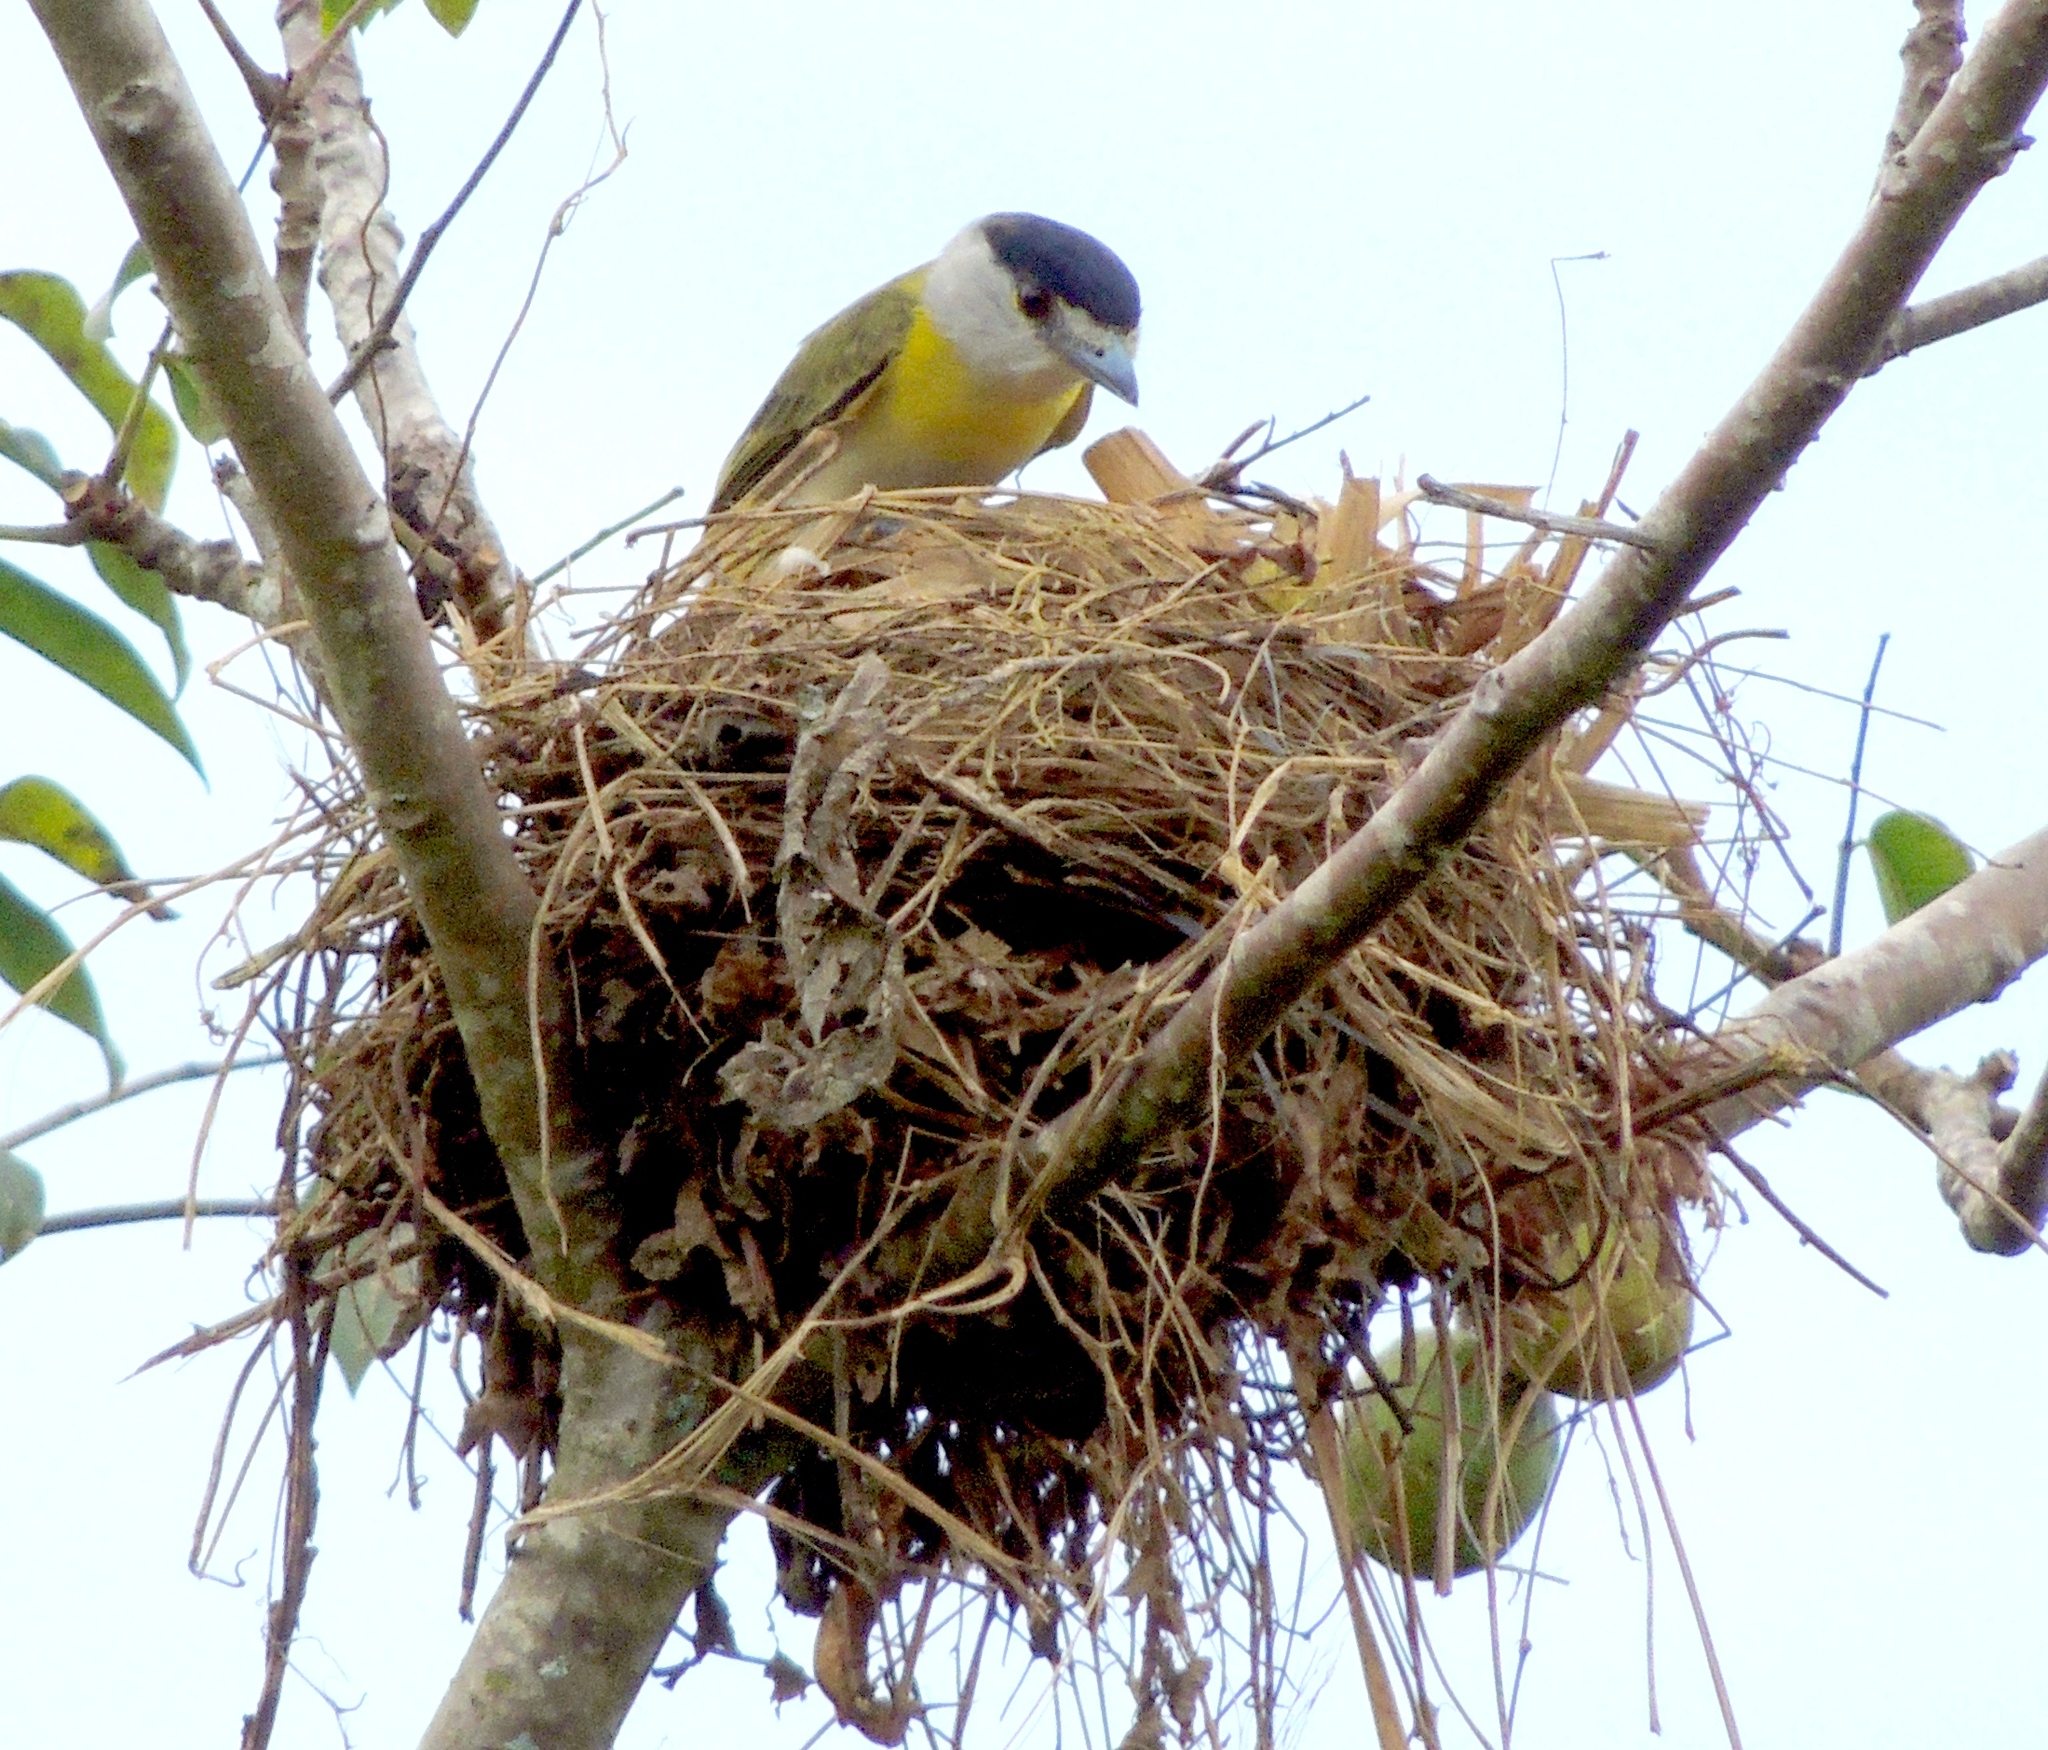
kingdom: Animalia
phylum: Chordata
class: Aves
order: Passeriformes
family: Cotingidae
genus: Pachyramphus
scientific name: Pachyramphus viridis
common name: Green-backed becard
